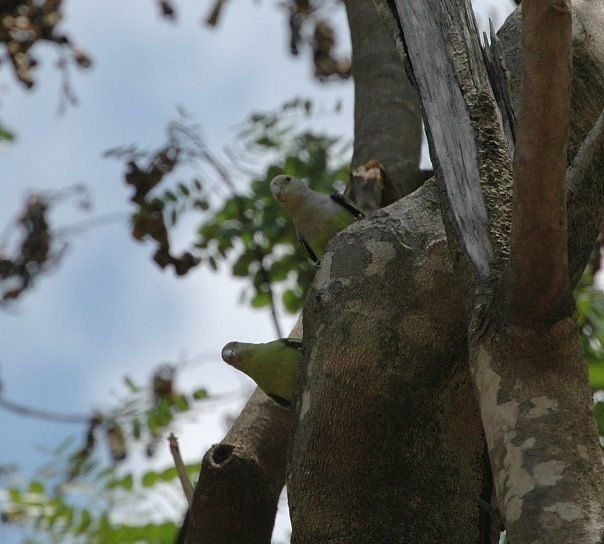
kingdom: Animalia
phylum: Chordata
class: Aves
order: Psittaciformes
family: Psittacidae
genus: Agapornis
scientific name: Agapornis canus
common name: Grey-headed lovebird
